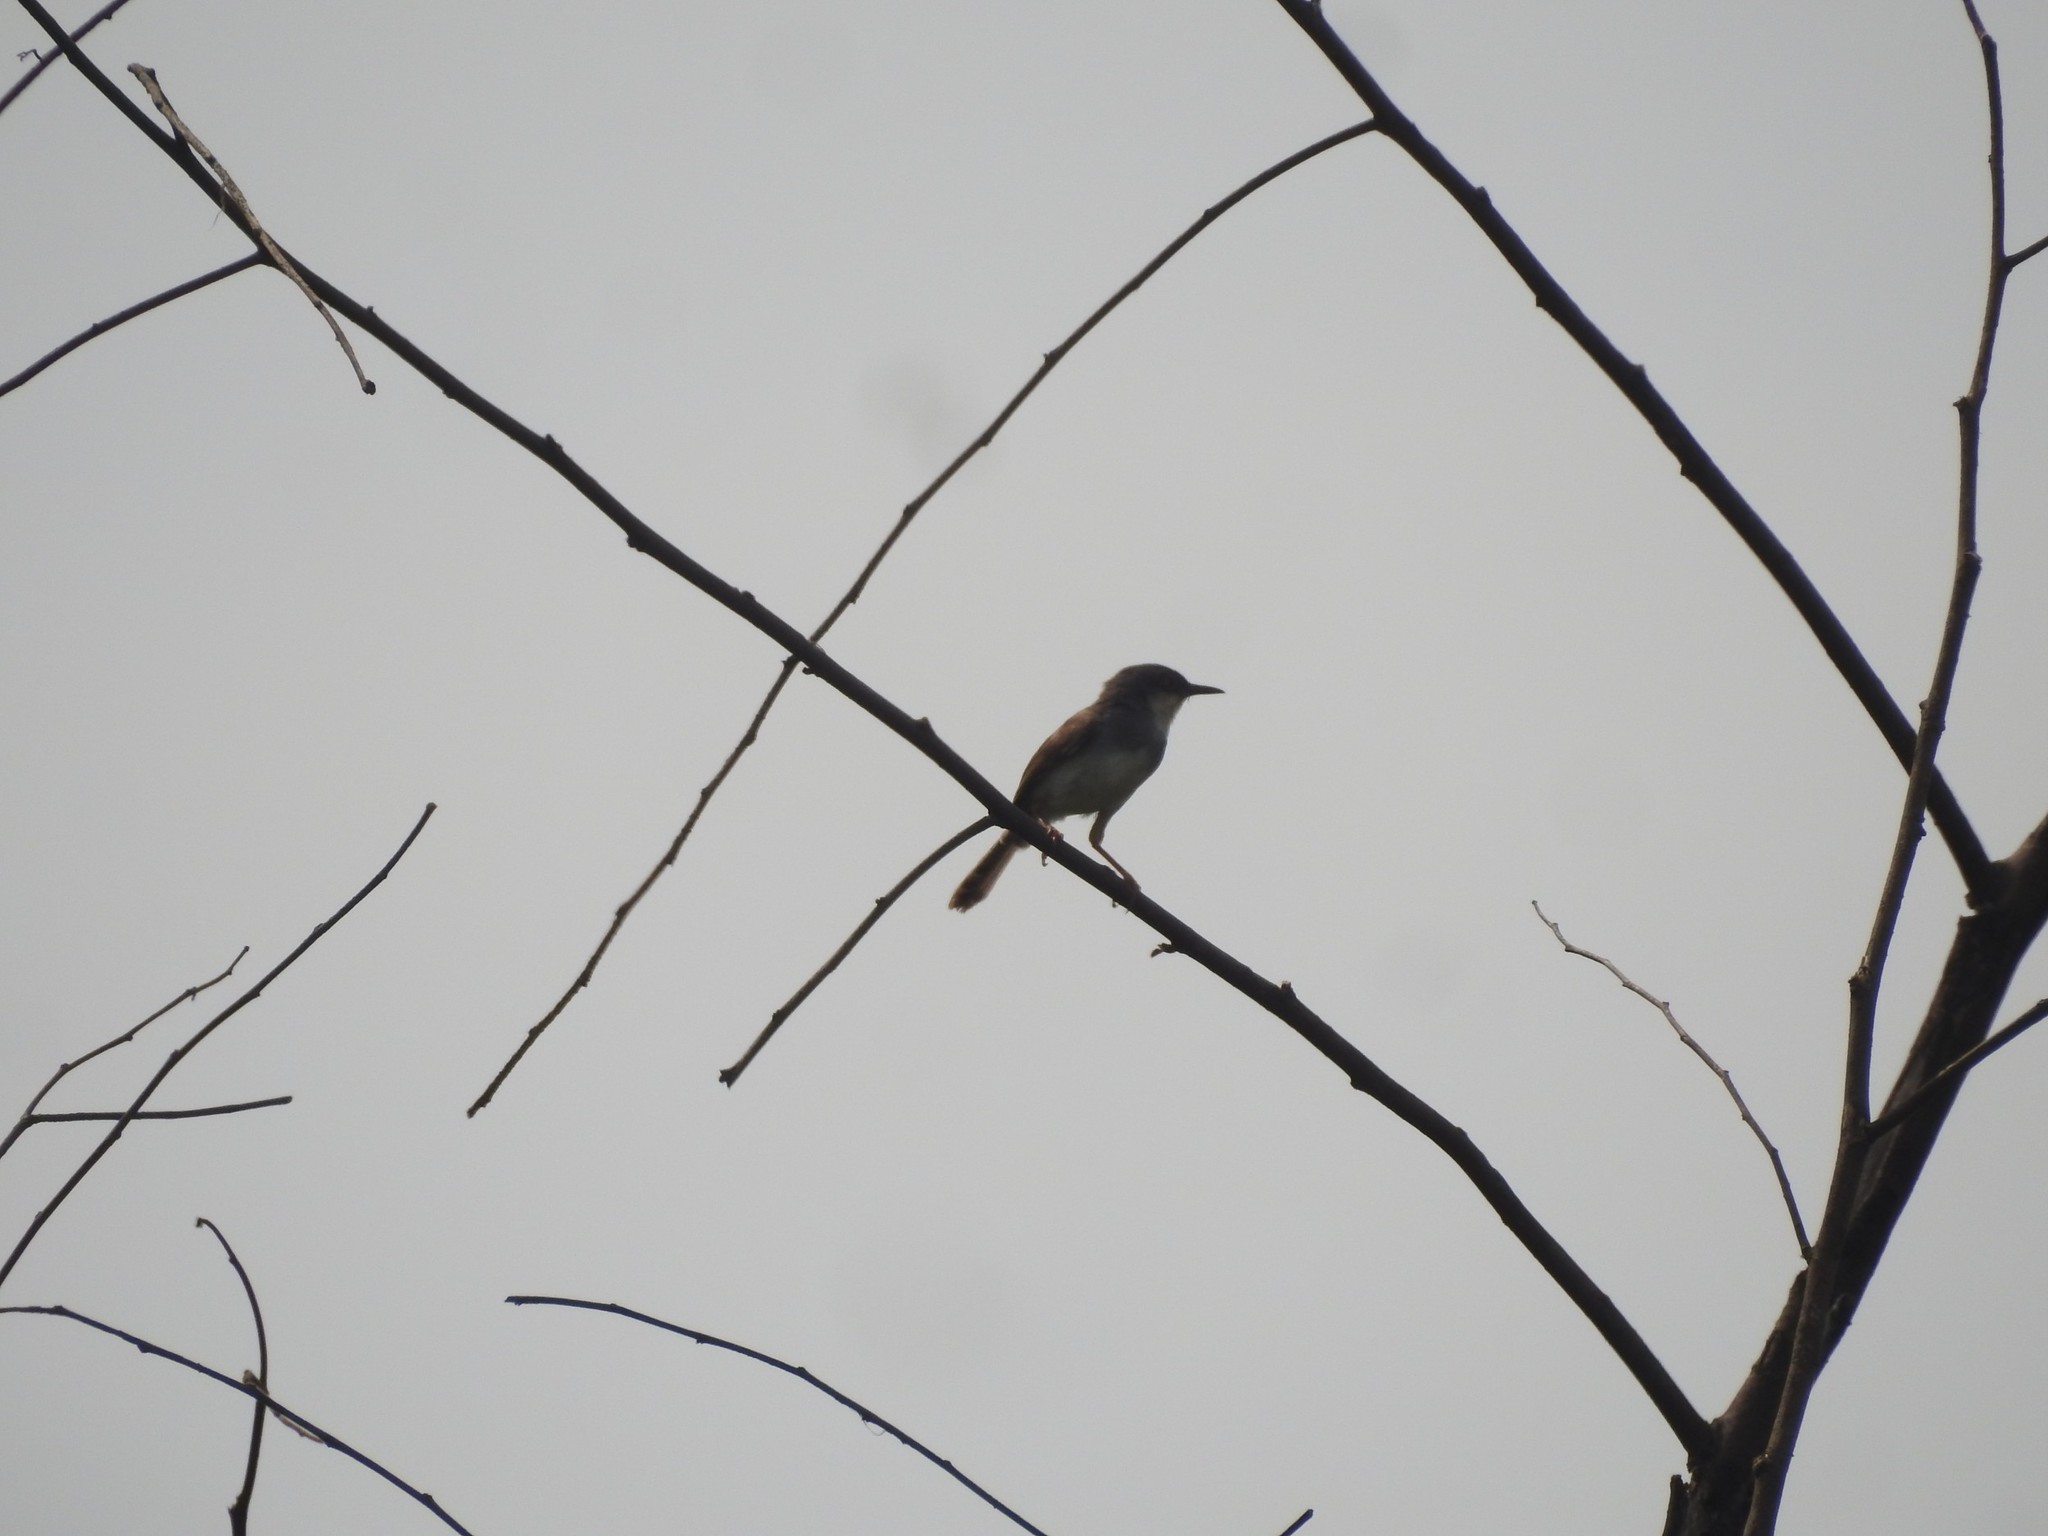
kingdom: Animalia
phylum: Chordata
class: Aves
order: Passeriformes
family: Cisticolidae
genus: Prinia
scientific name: Prinia hodgsonii
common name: Grey-breasted prinia
